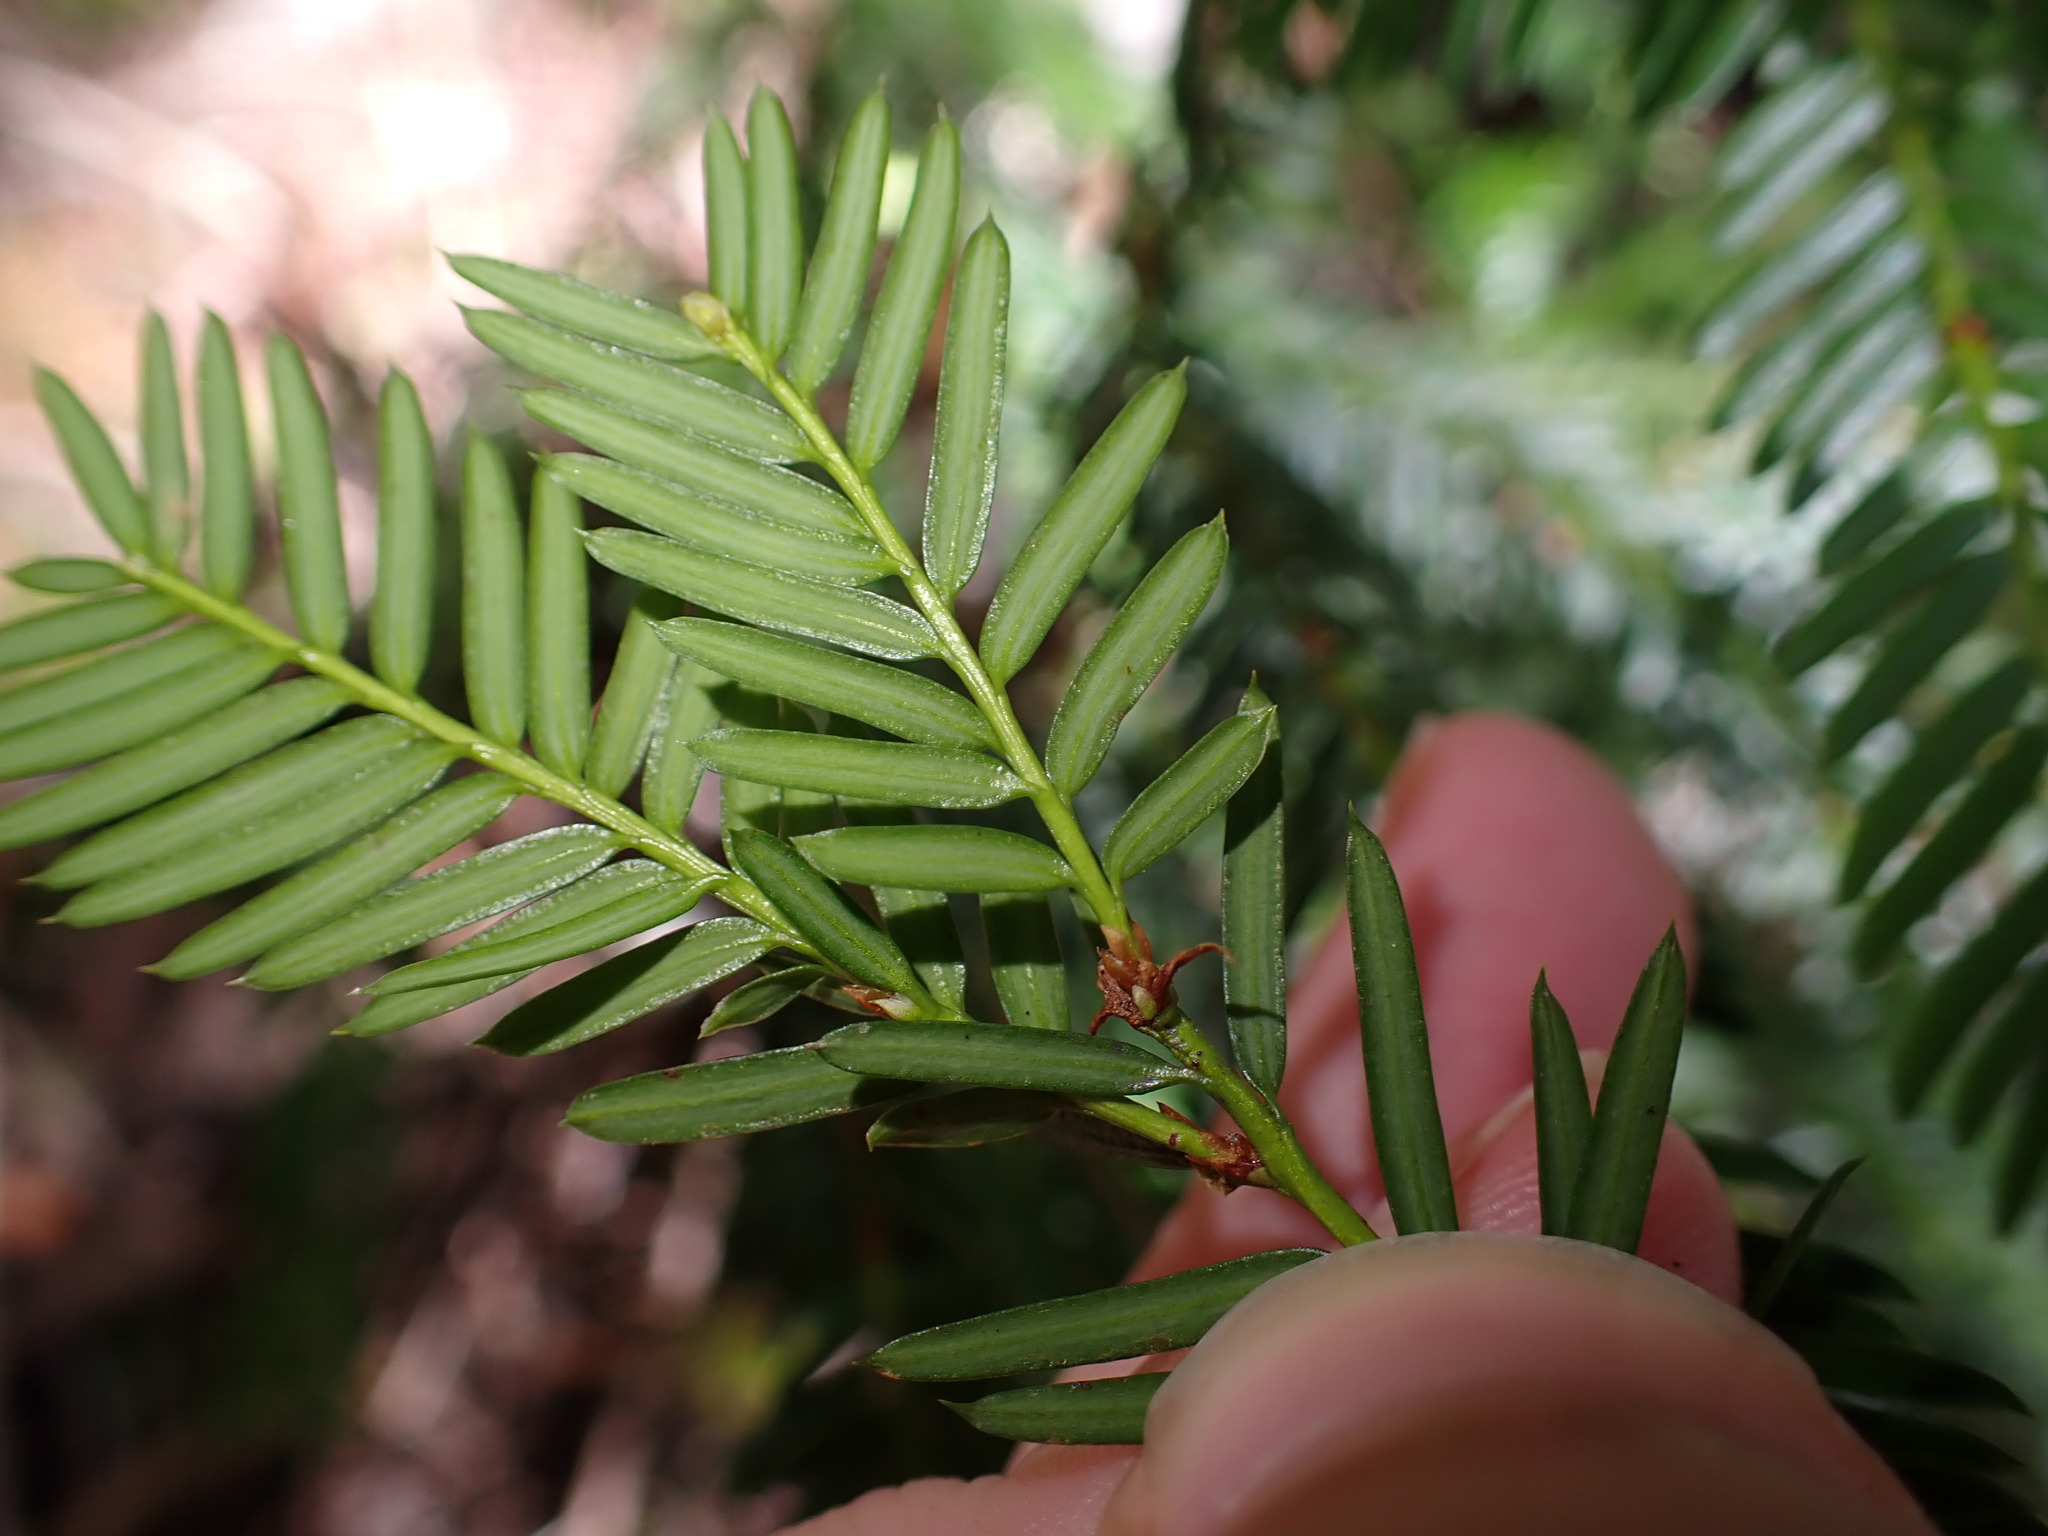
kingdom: Plantae
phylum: Tracheophyta
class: Pinopsida
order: Pinales
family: Taxaceae
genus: Taxus
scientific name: Taxus brevifolia
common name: Pacific yew
